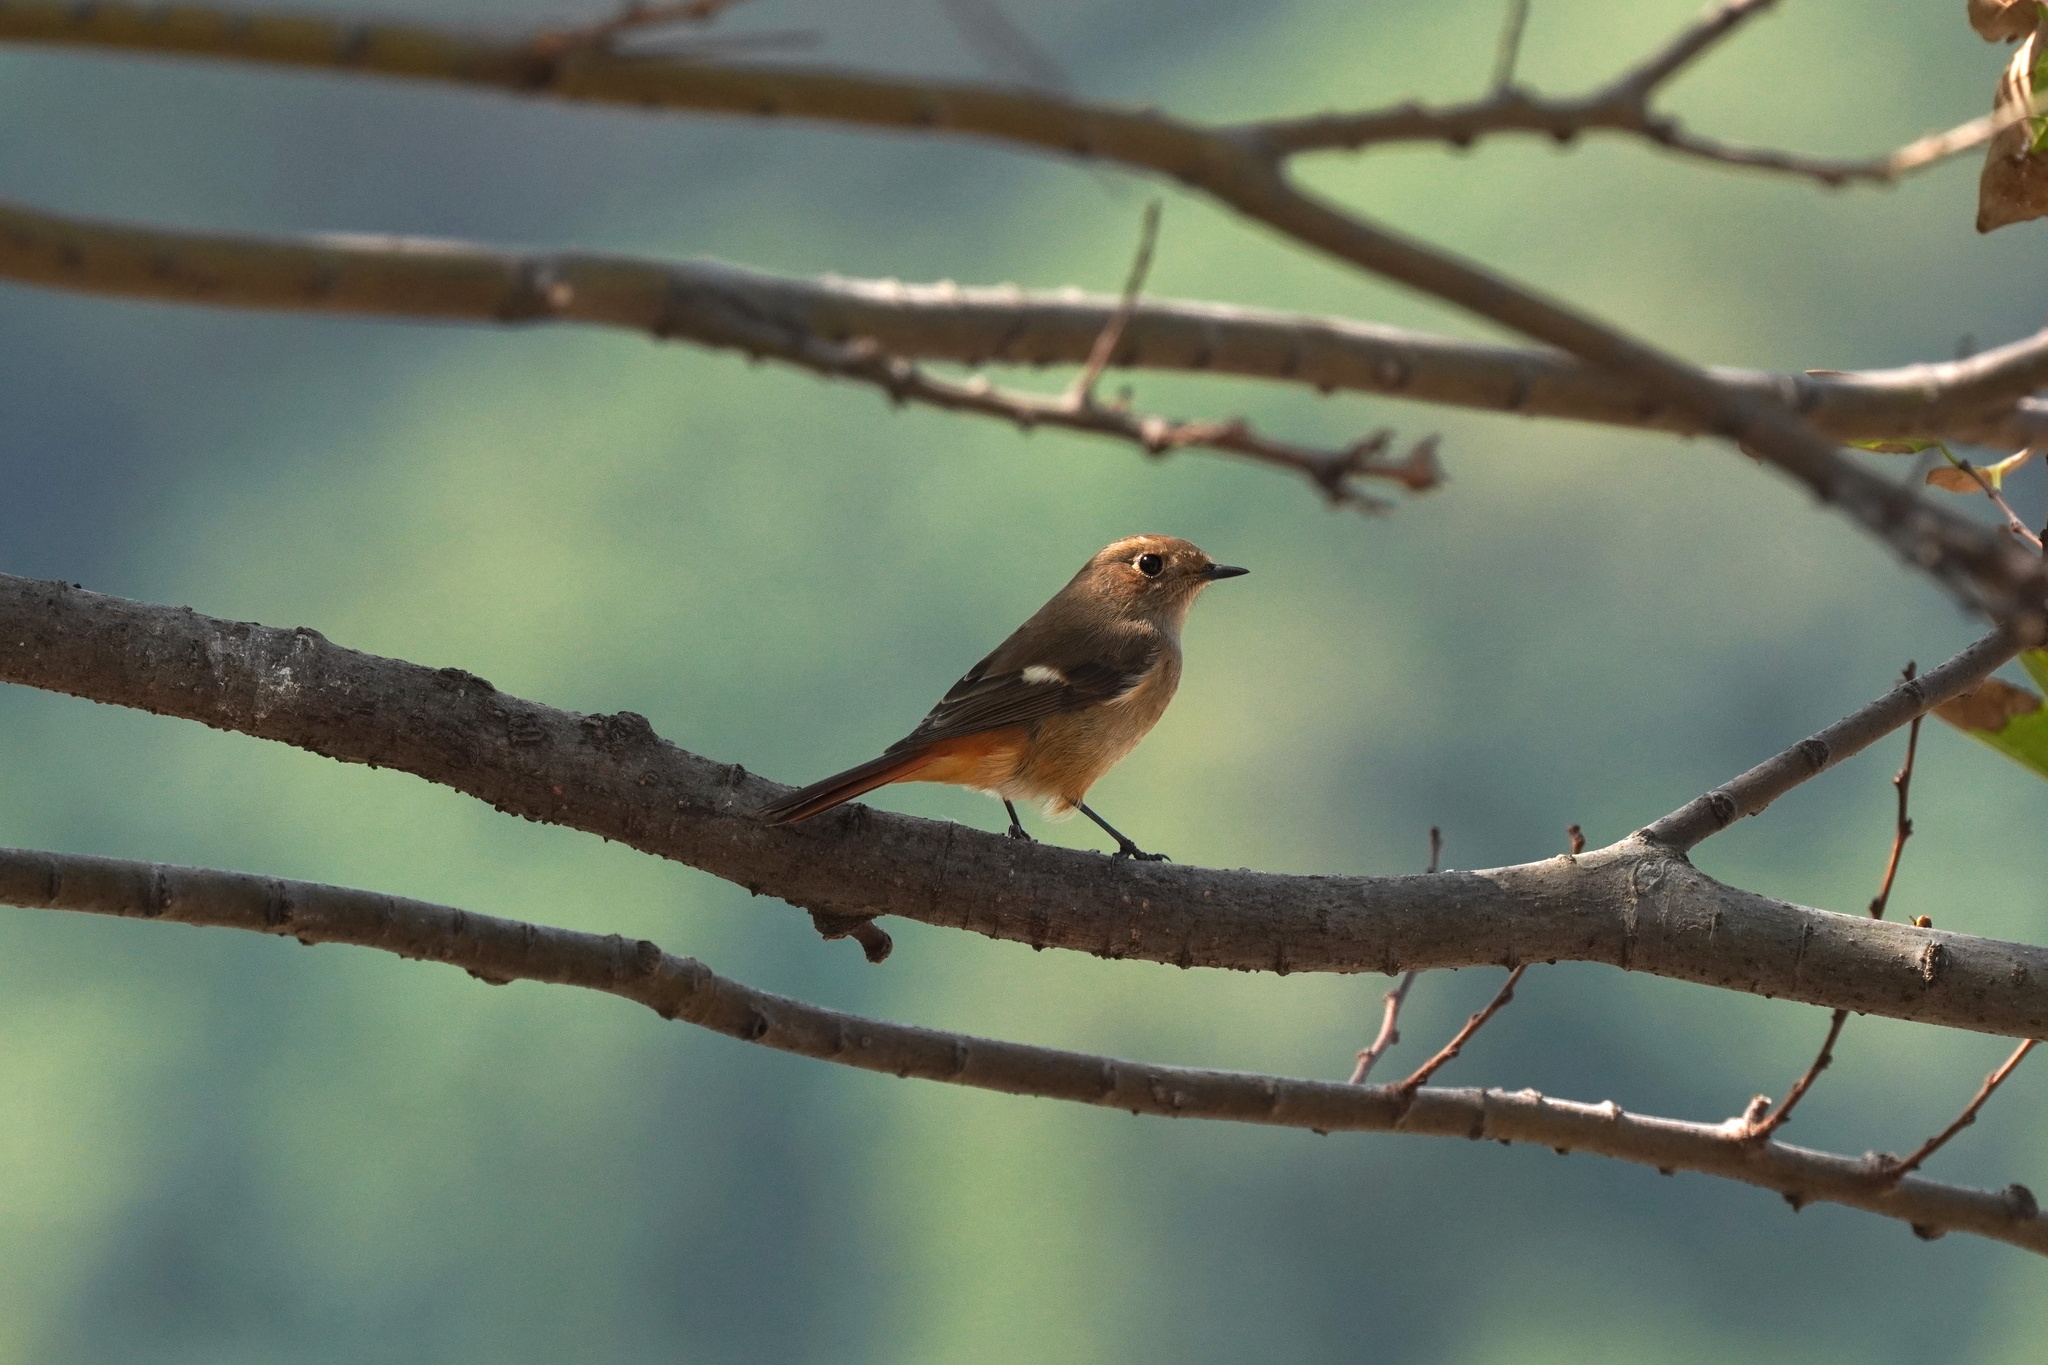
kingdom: Animalia
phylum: Chordata
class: Aves
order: Passeriformes
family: Muscicapidae
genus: Phoenicurus
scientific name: Phoenicurus auroreus
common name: Daurian redstart
